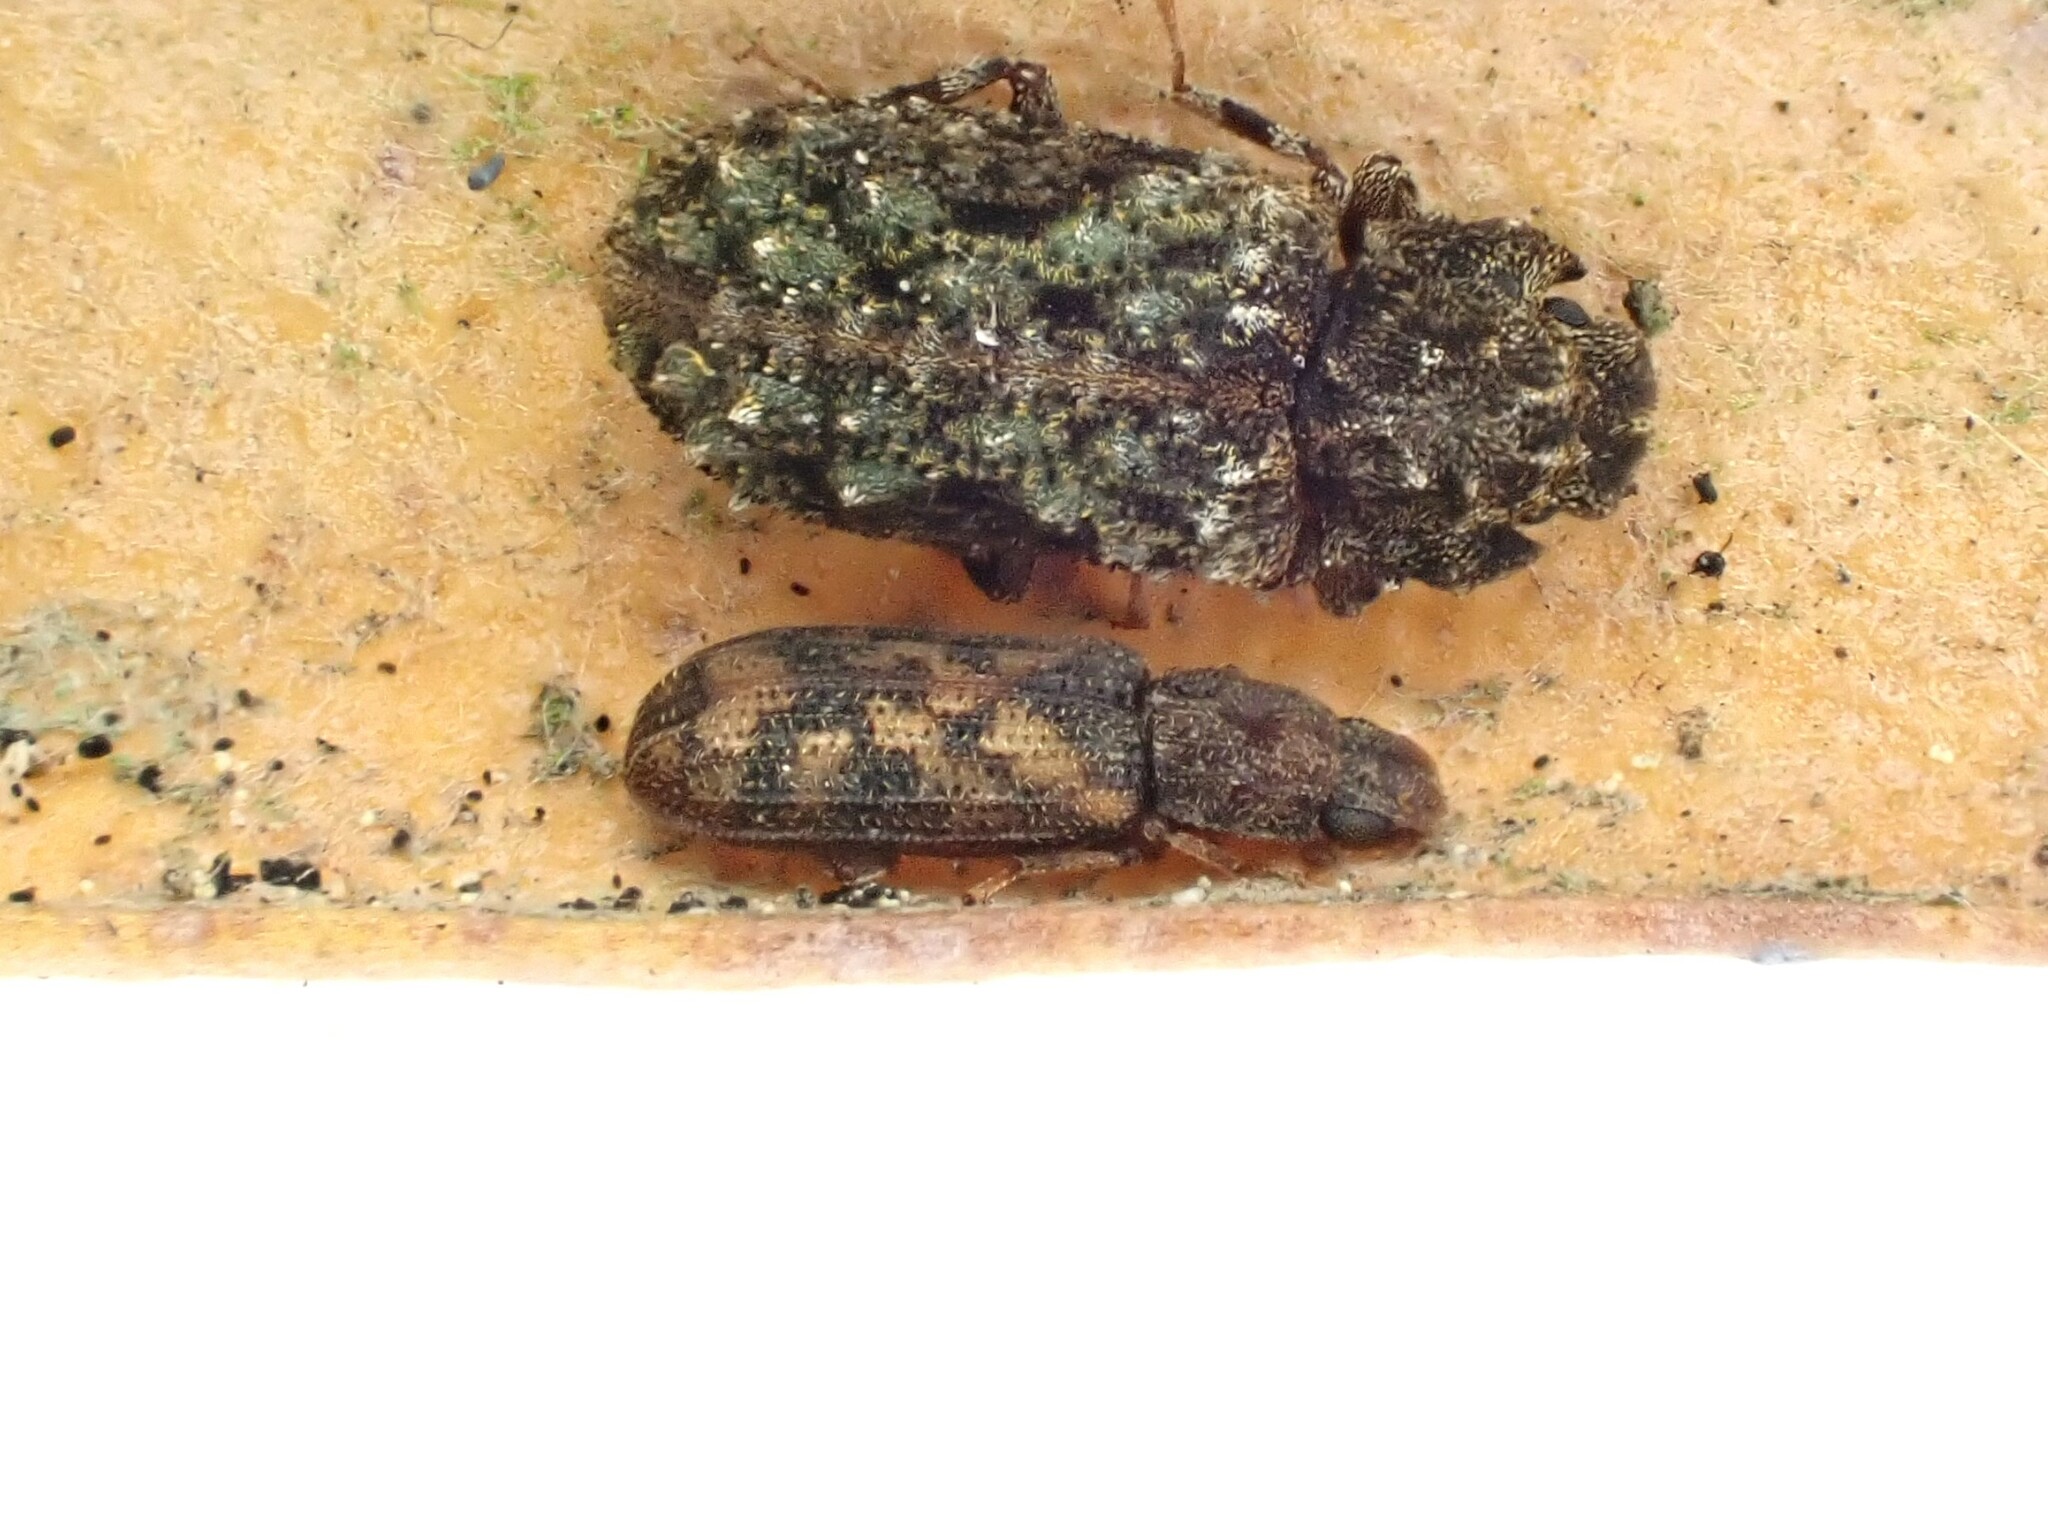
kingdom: Animalia
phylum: Arthropoda
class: Insecta
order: Coleoptera
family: Zopheridae
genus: Bitoma
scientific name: Bitoma insularis
